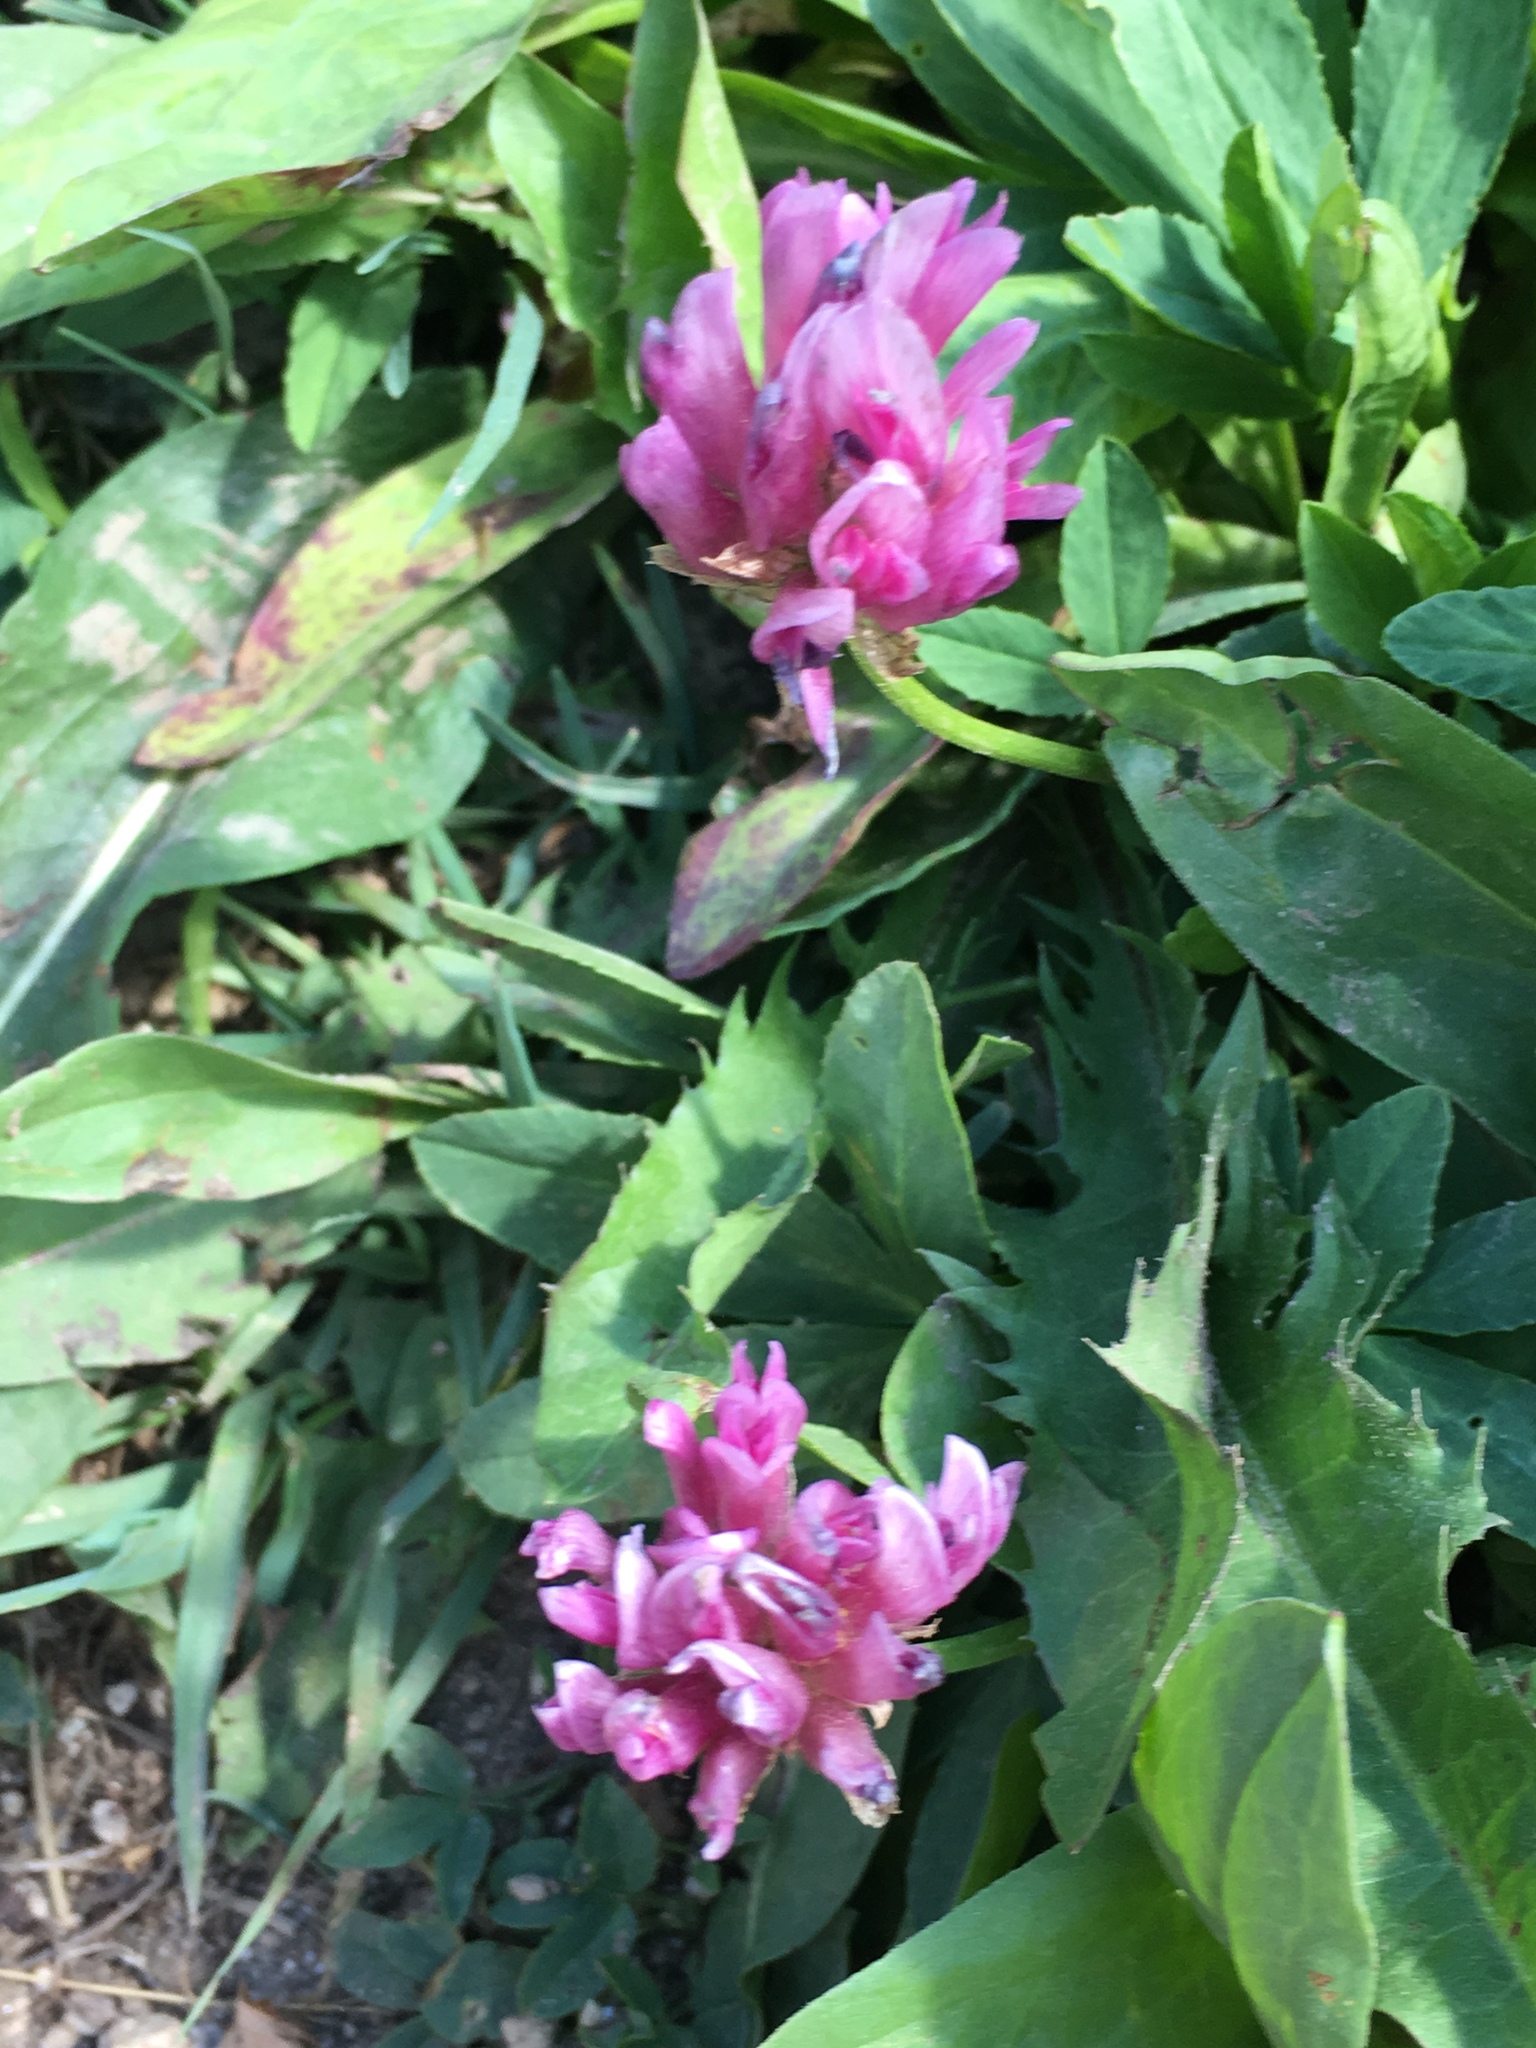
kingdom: Plantae
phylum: Tracheophyta
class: Magnoliopsida
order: Fabales
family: Fabaceae
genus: Trifolium
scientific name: Trifolium parryi
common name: Parry's clover
